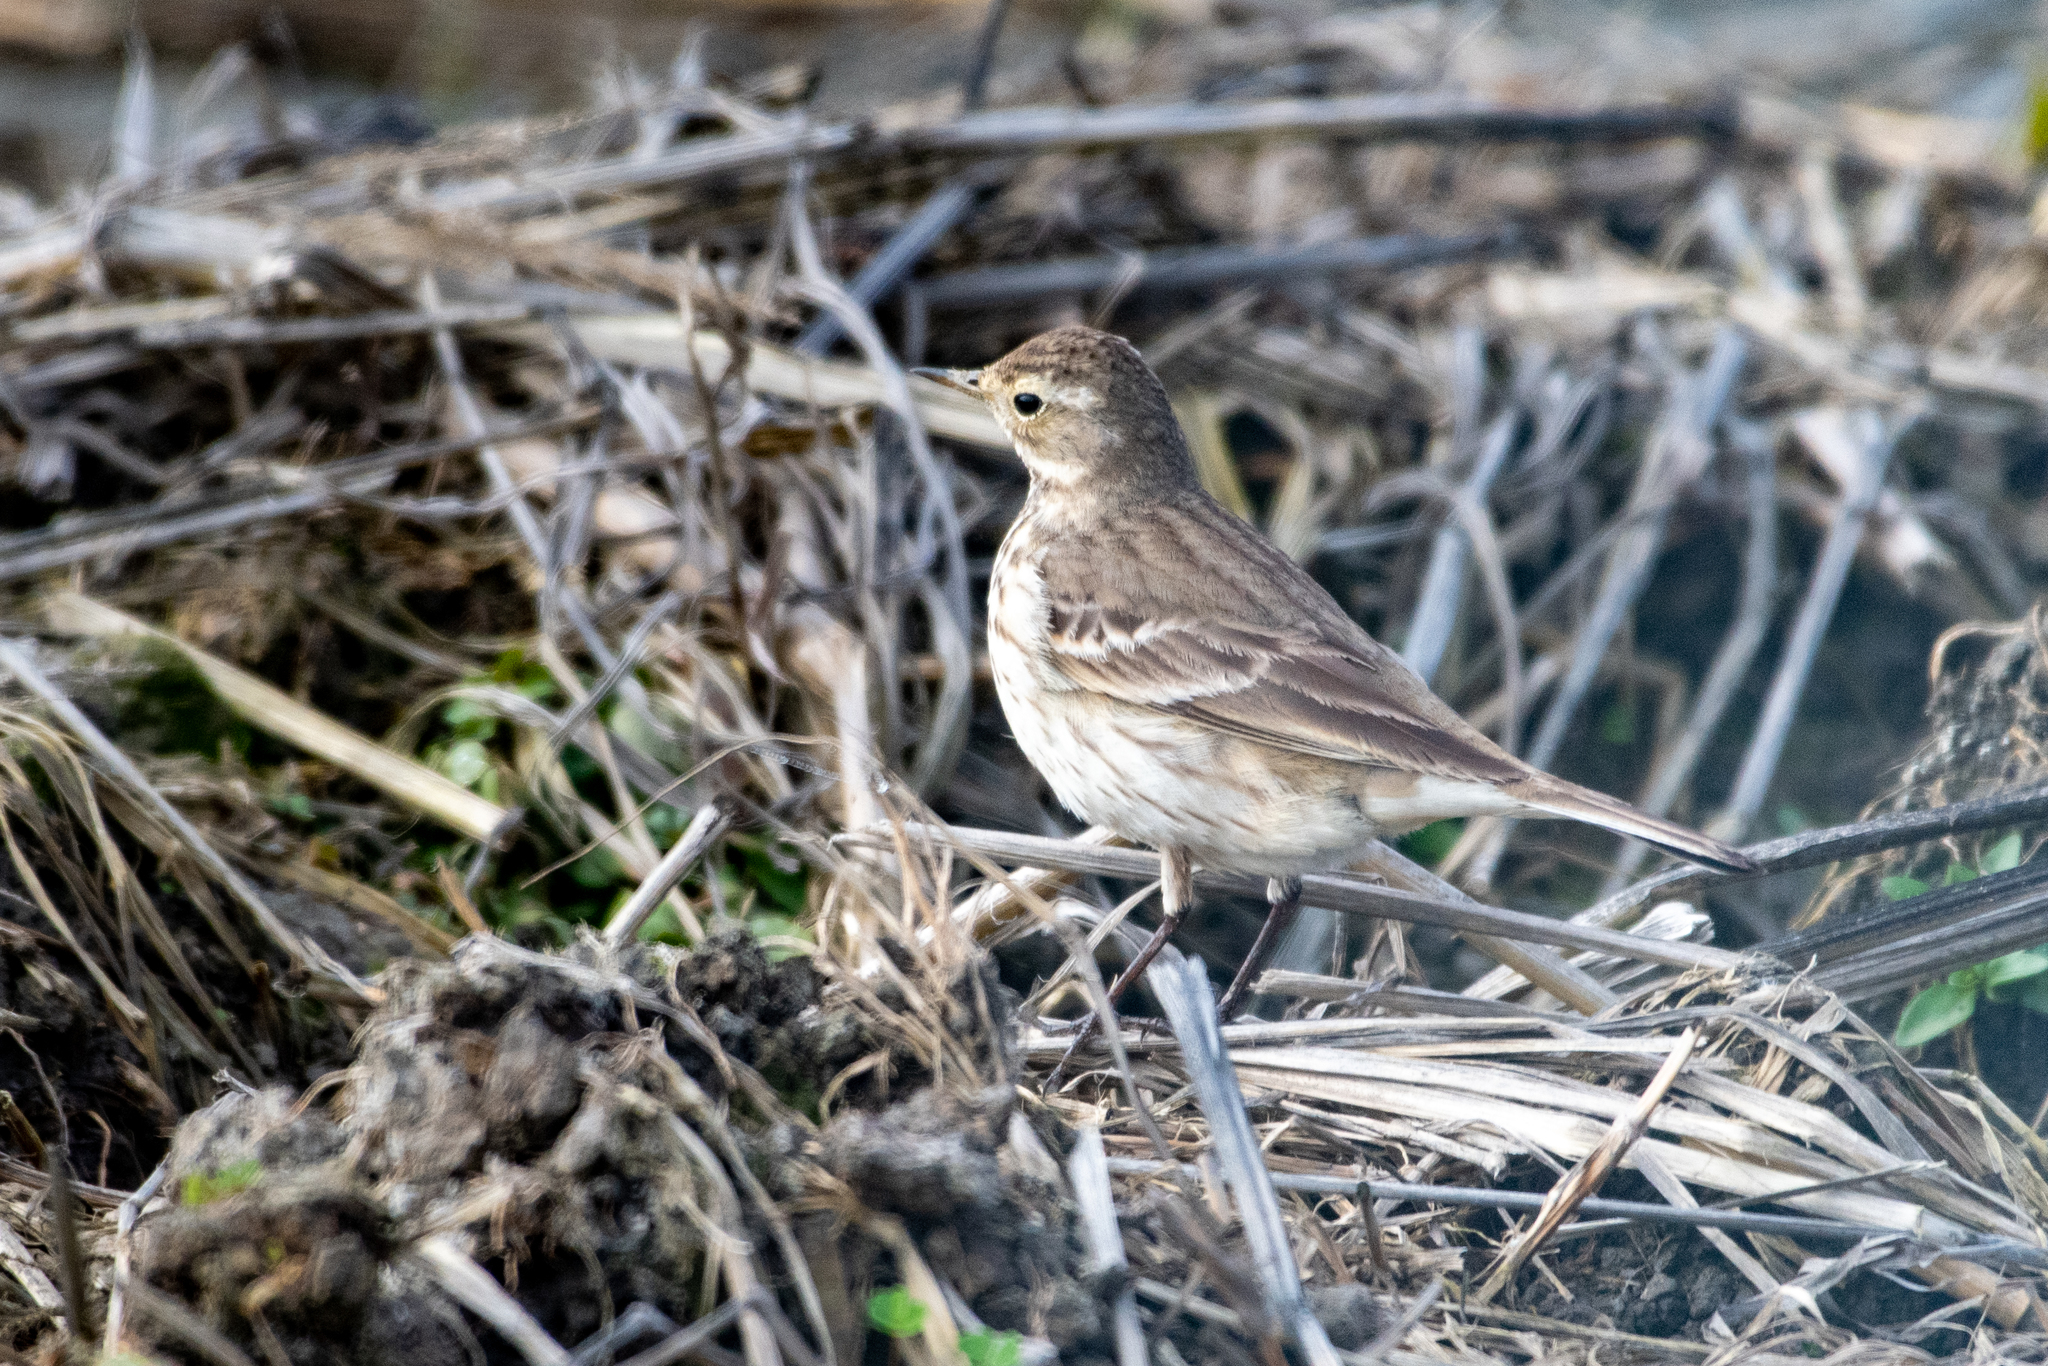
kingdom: Animalia
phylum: Chordata
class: Aves
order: Passeriformes
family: Motacillidae
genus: Anthus
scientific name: Anthus rubescens
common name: Buff-bellied pipit
